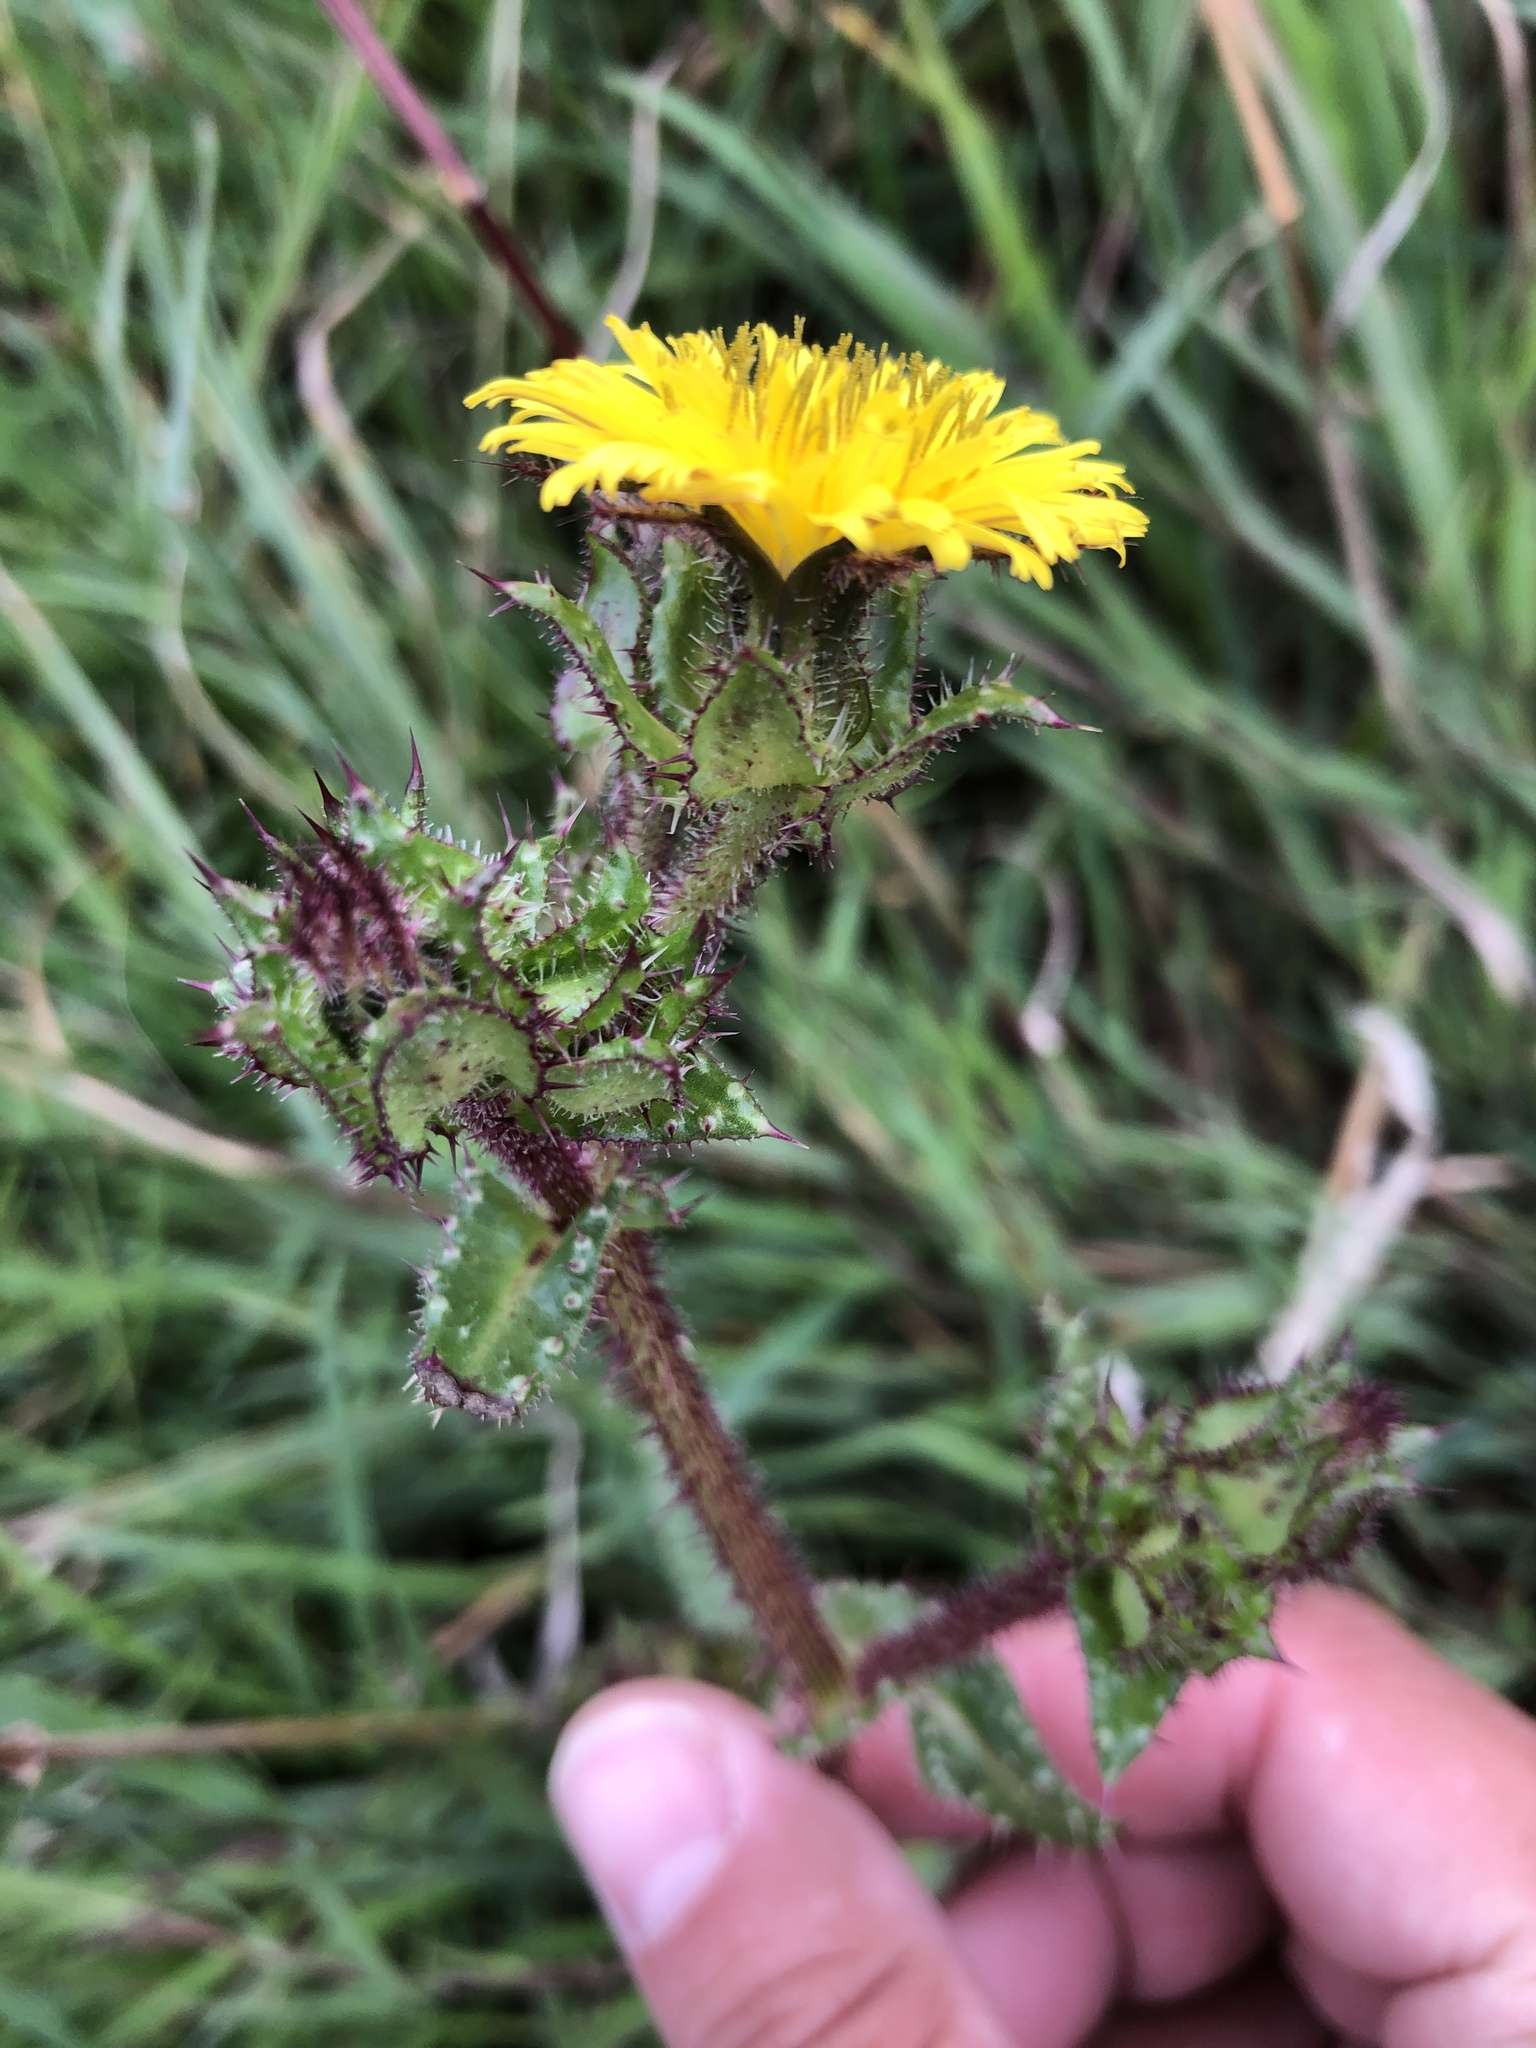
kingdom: Plantae
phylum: Tracheophyta
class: Magnoliopsida
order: Asterales
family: Asteraceae
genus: Helminthotheca
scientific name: Helminthotheca echioides
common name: Ox-tongue
